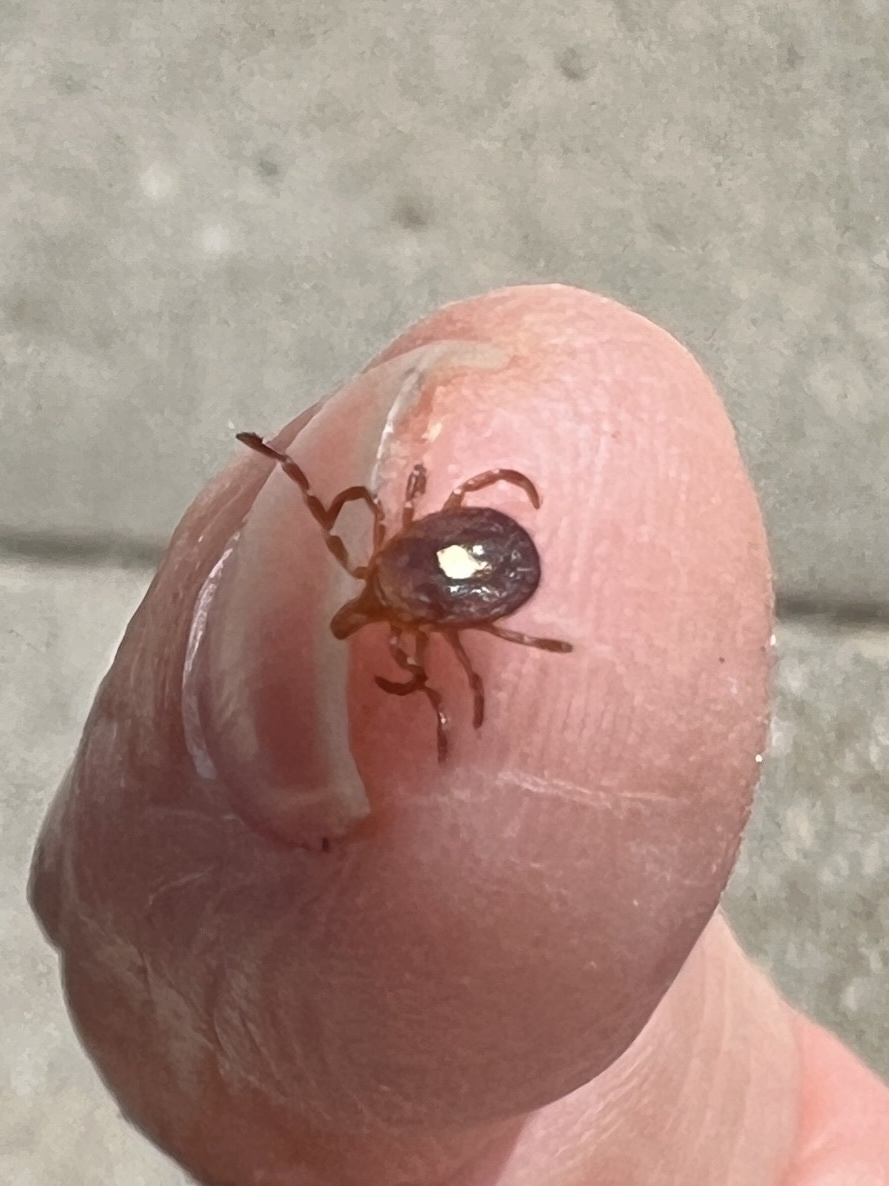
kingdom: Animalia
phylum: Arthropoda
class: Arachnida
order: Ixodida
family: Ixodidae
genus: Amblyomma
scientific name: Amblyomma americanum
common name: Lone star tick
